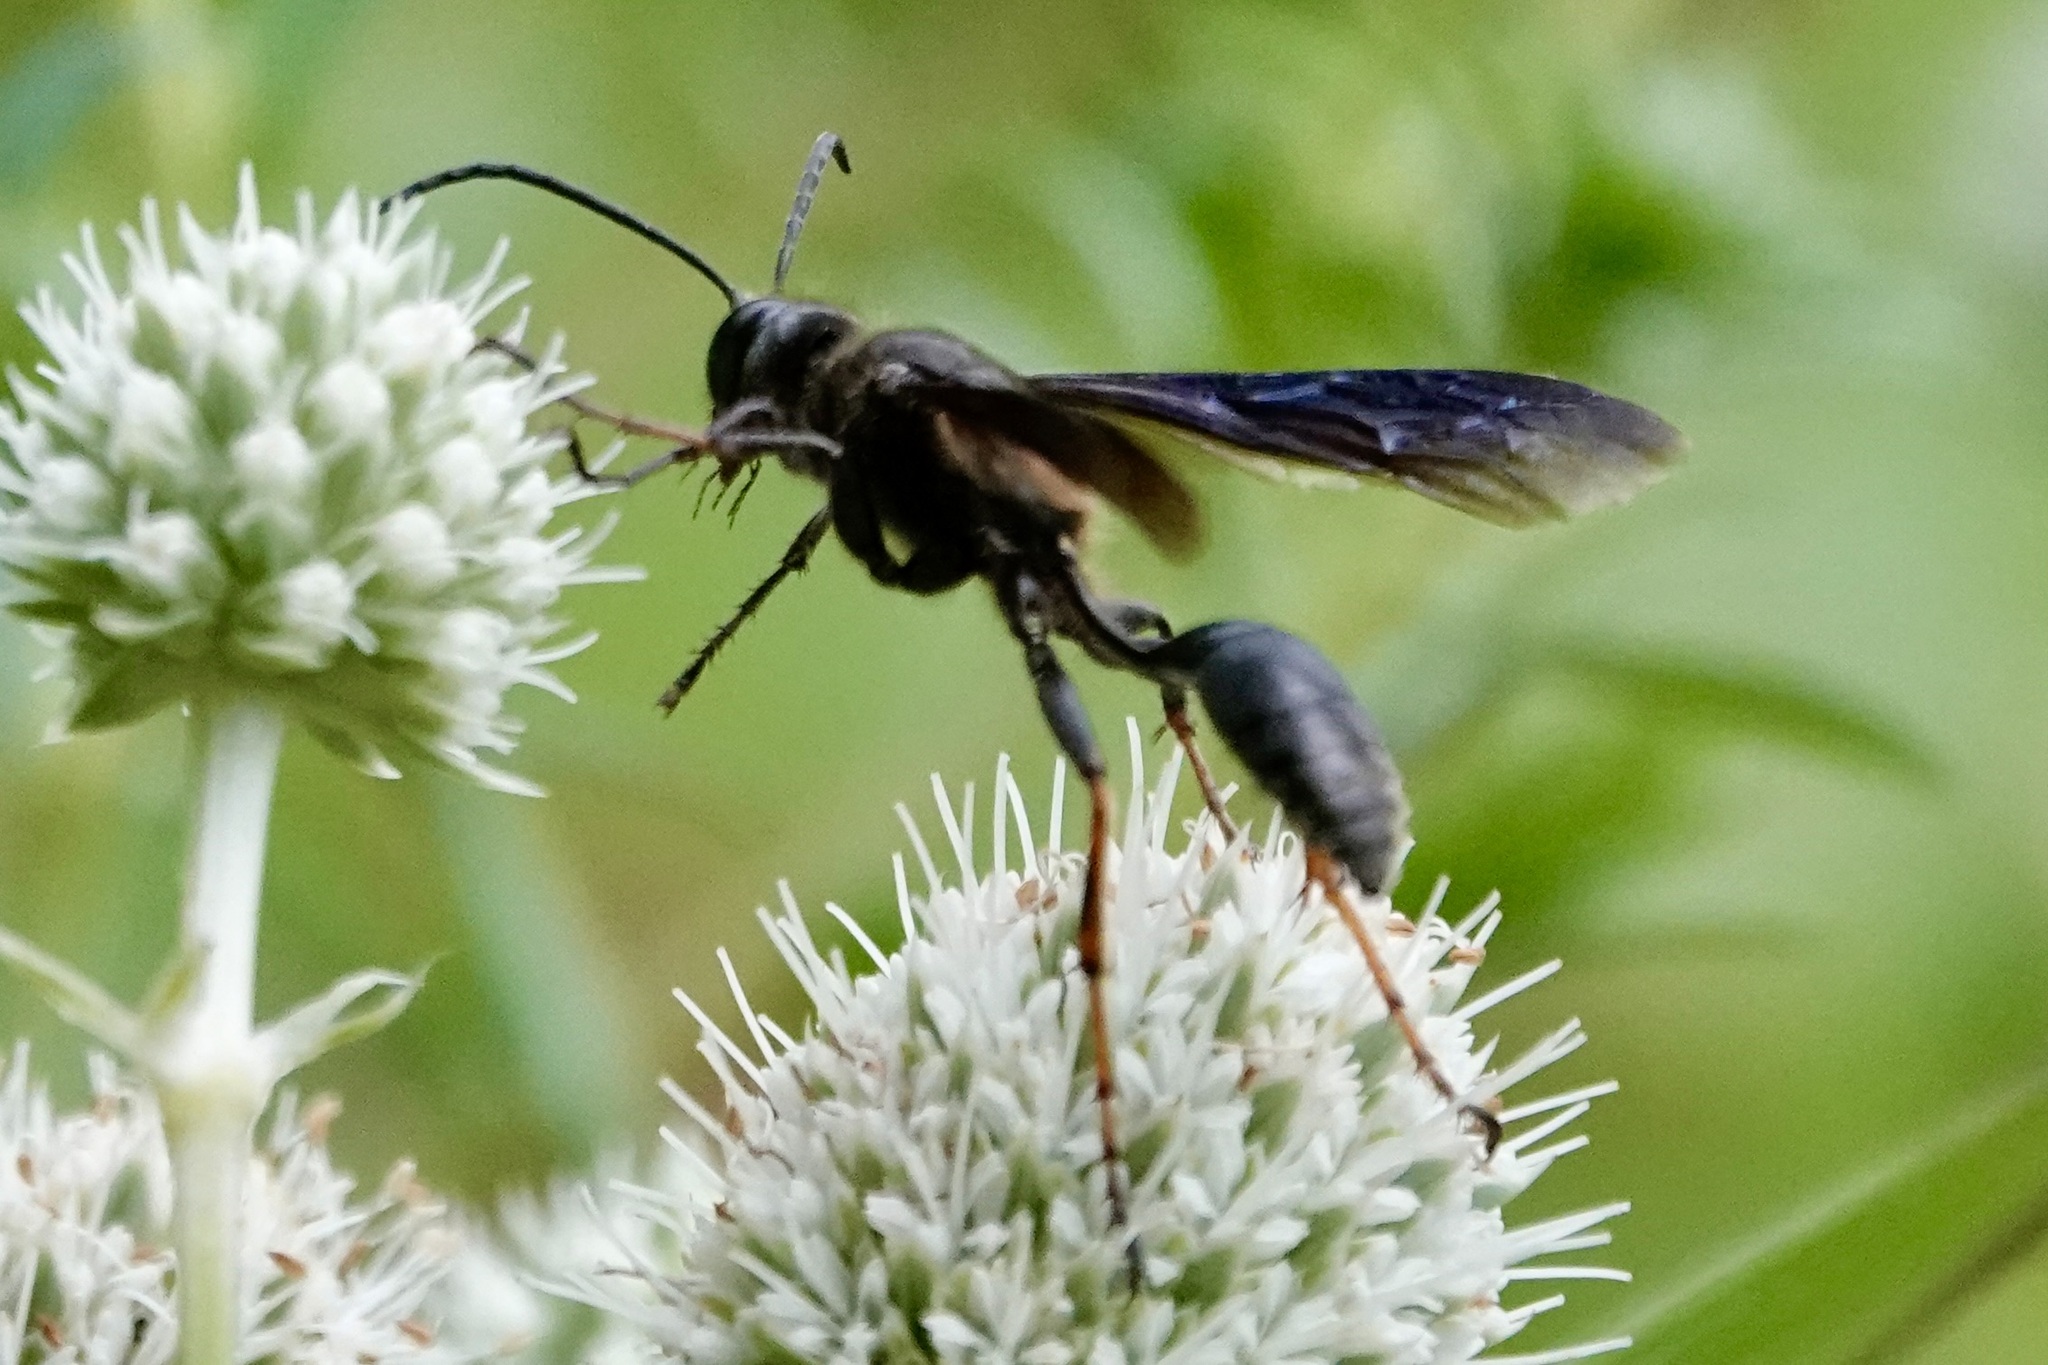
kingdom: Animalia
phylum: Arthropoda
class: Insecta
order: Hymenoptera
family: Sphecidae
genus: Isodontia
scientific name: Isodontia auripes
